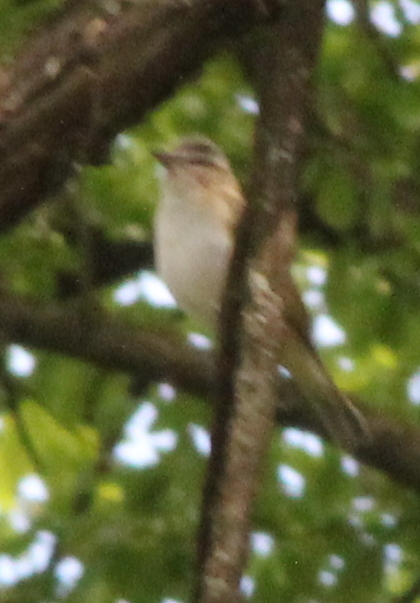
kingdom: Animalia
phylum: Chordata
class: Aves
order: Passeriformes
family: Vireonidae
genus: Vireo
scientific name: Vireo olivaceus
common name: Red-eyed vireo
